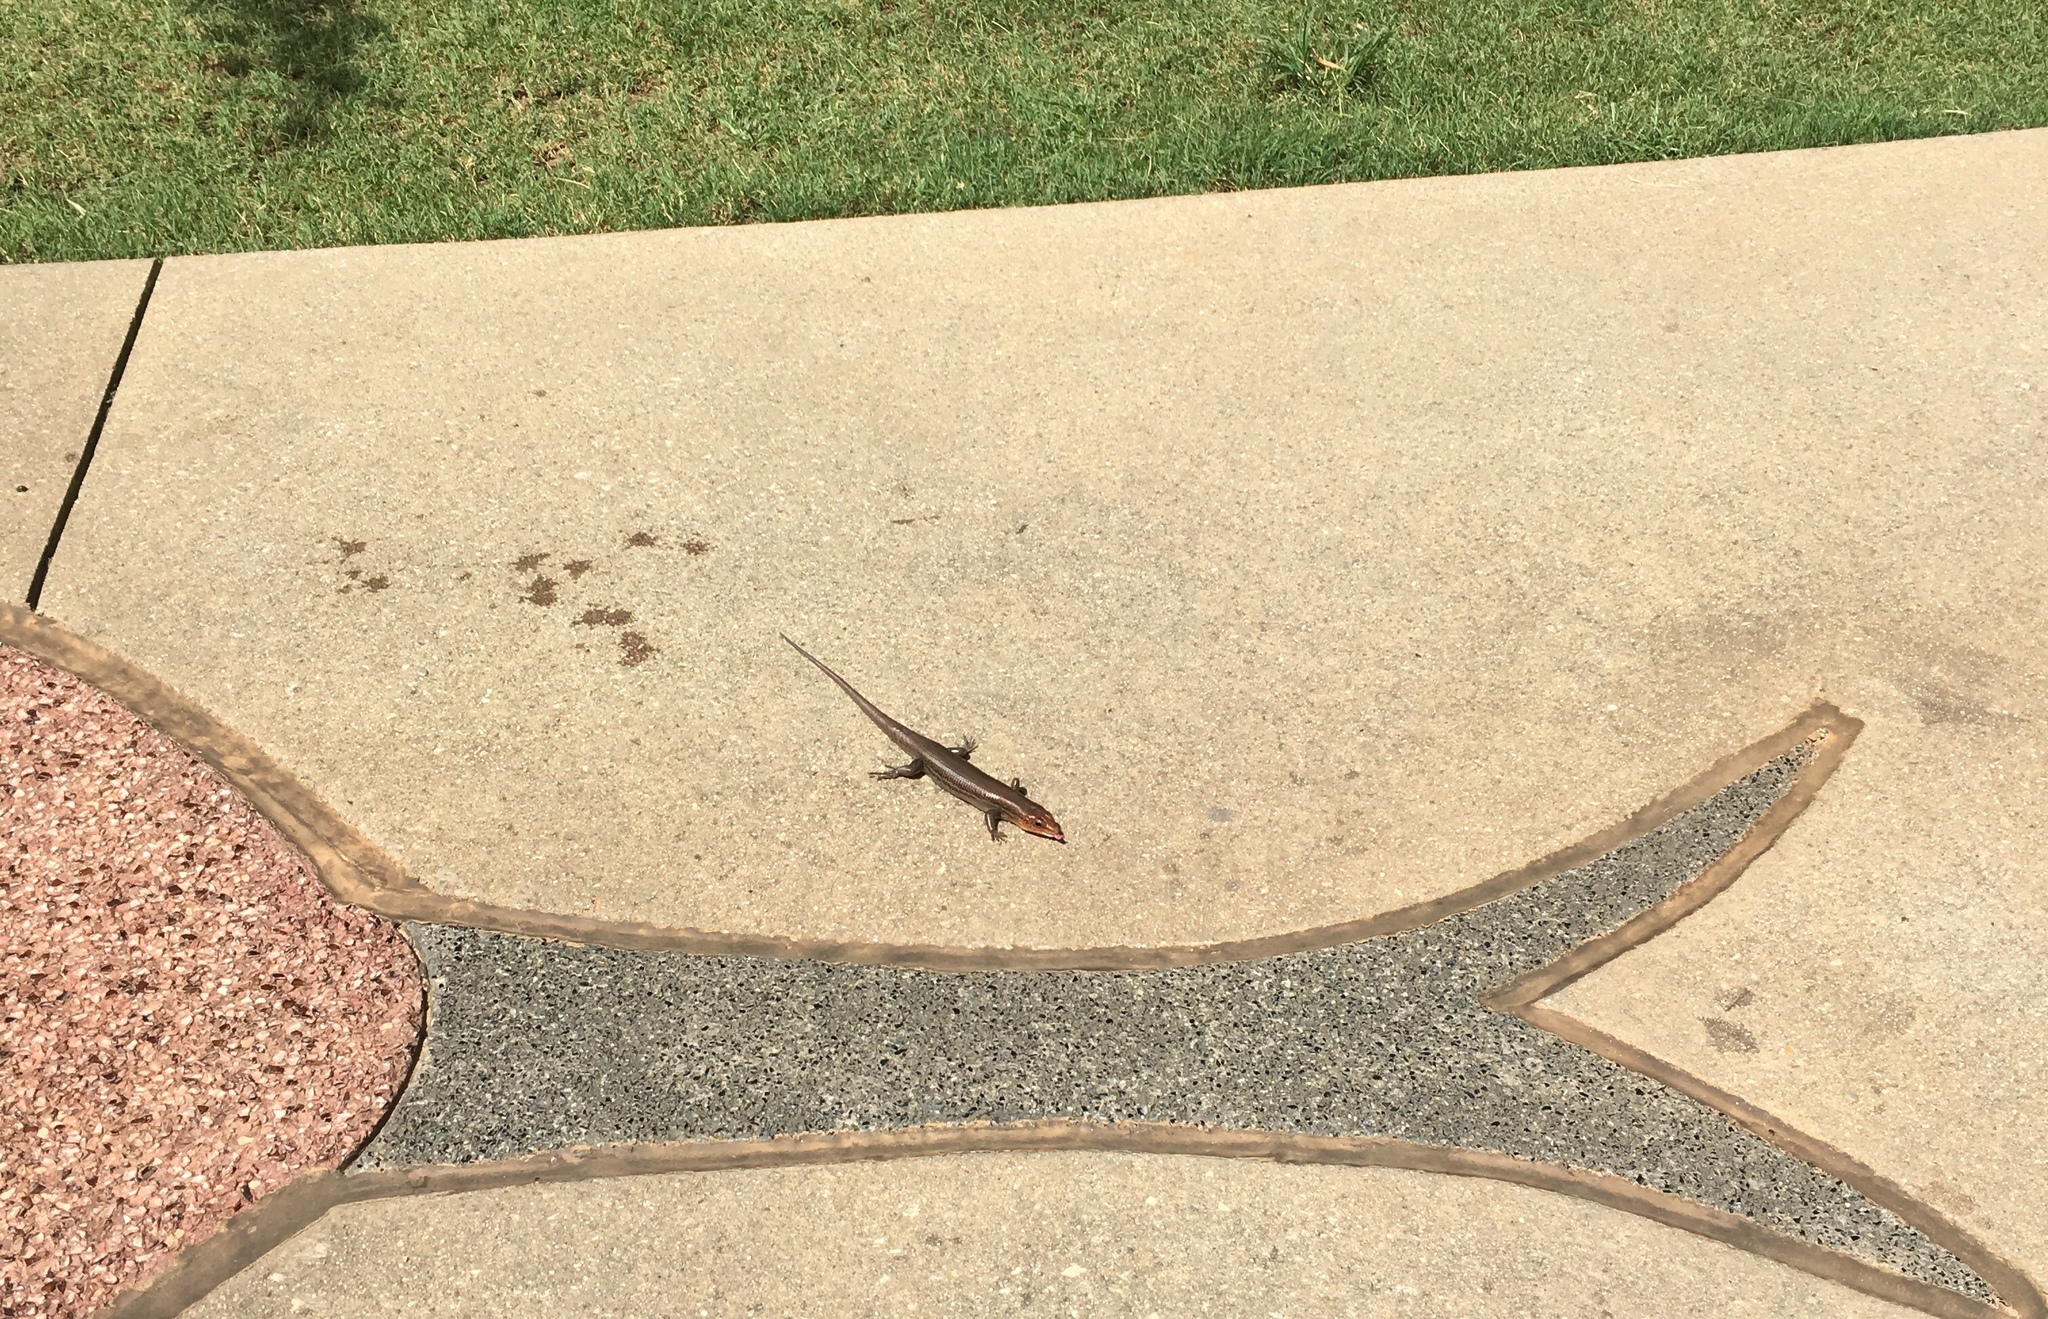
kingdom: Animalia
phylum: Chordata
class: Squamata
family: Scincidae
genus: Plestiodon
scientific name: Plestiodon laticeps
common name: Broadhead skink
